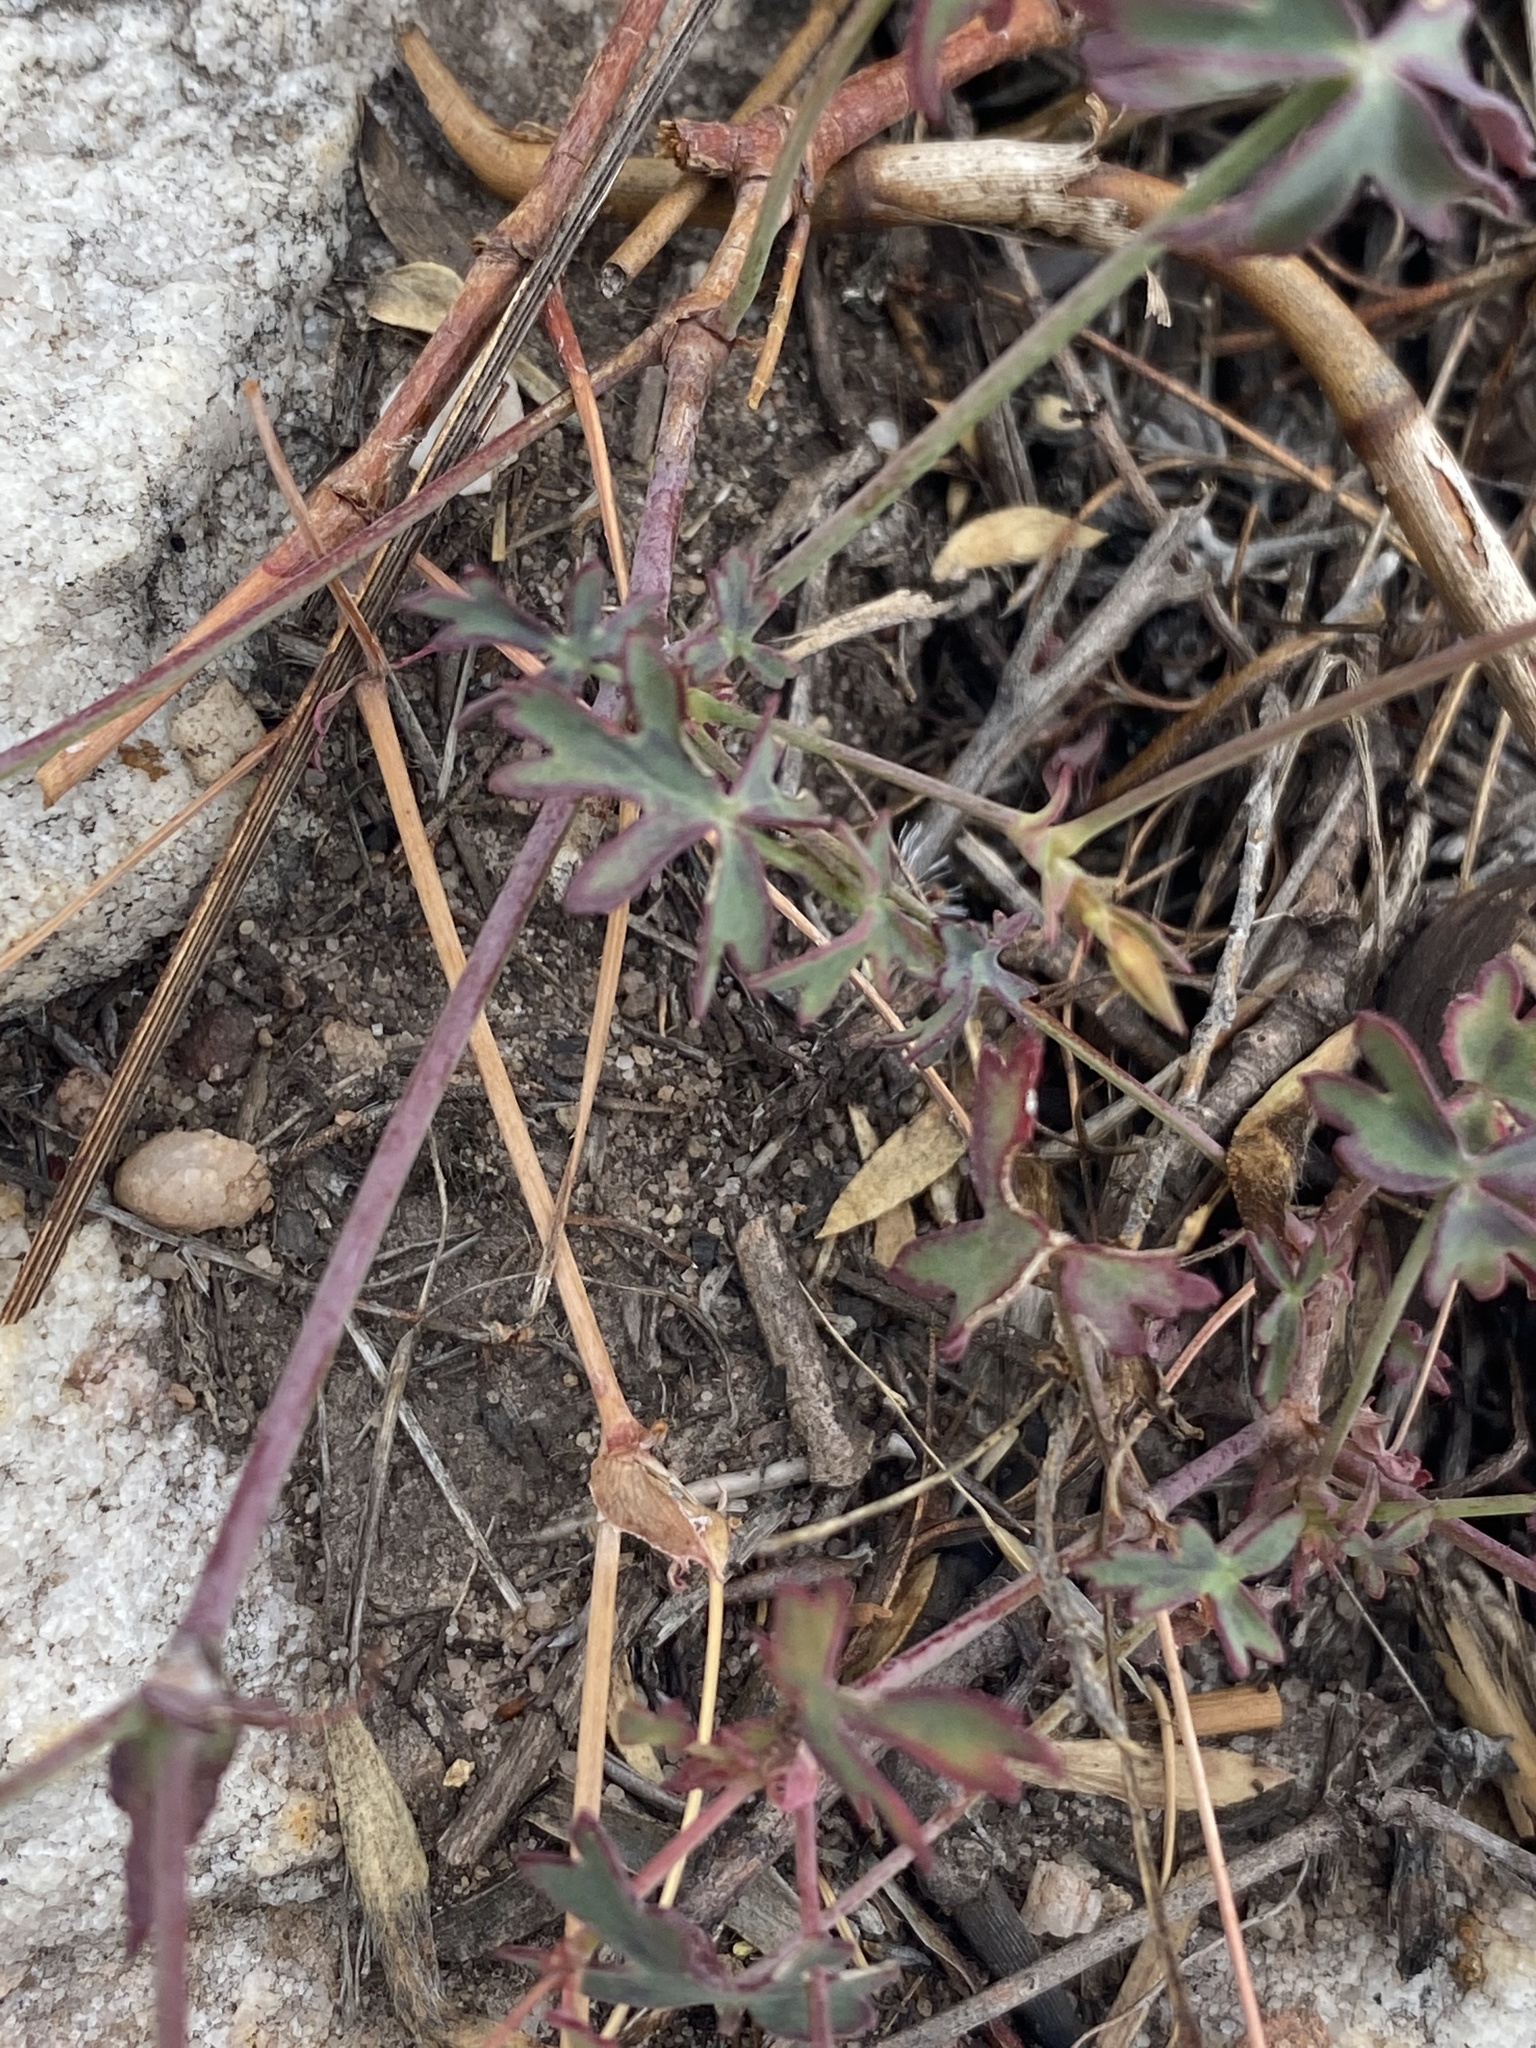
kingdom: Plantae
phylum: Tracheophyta
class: Magnoliopsida
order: Geraniales
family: Geraniaceae
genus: Pelargonium
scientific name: Pelargonium patulum
